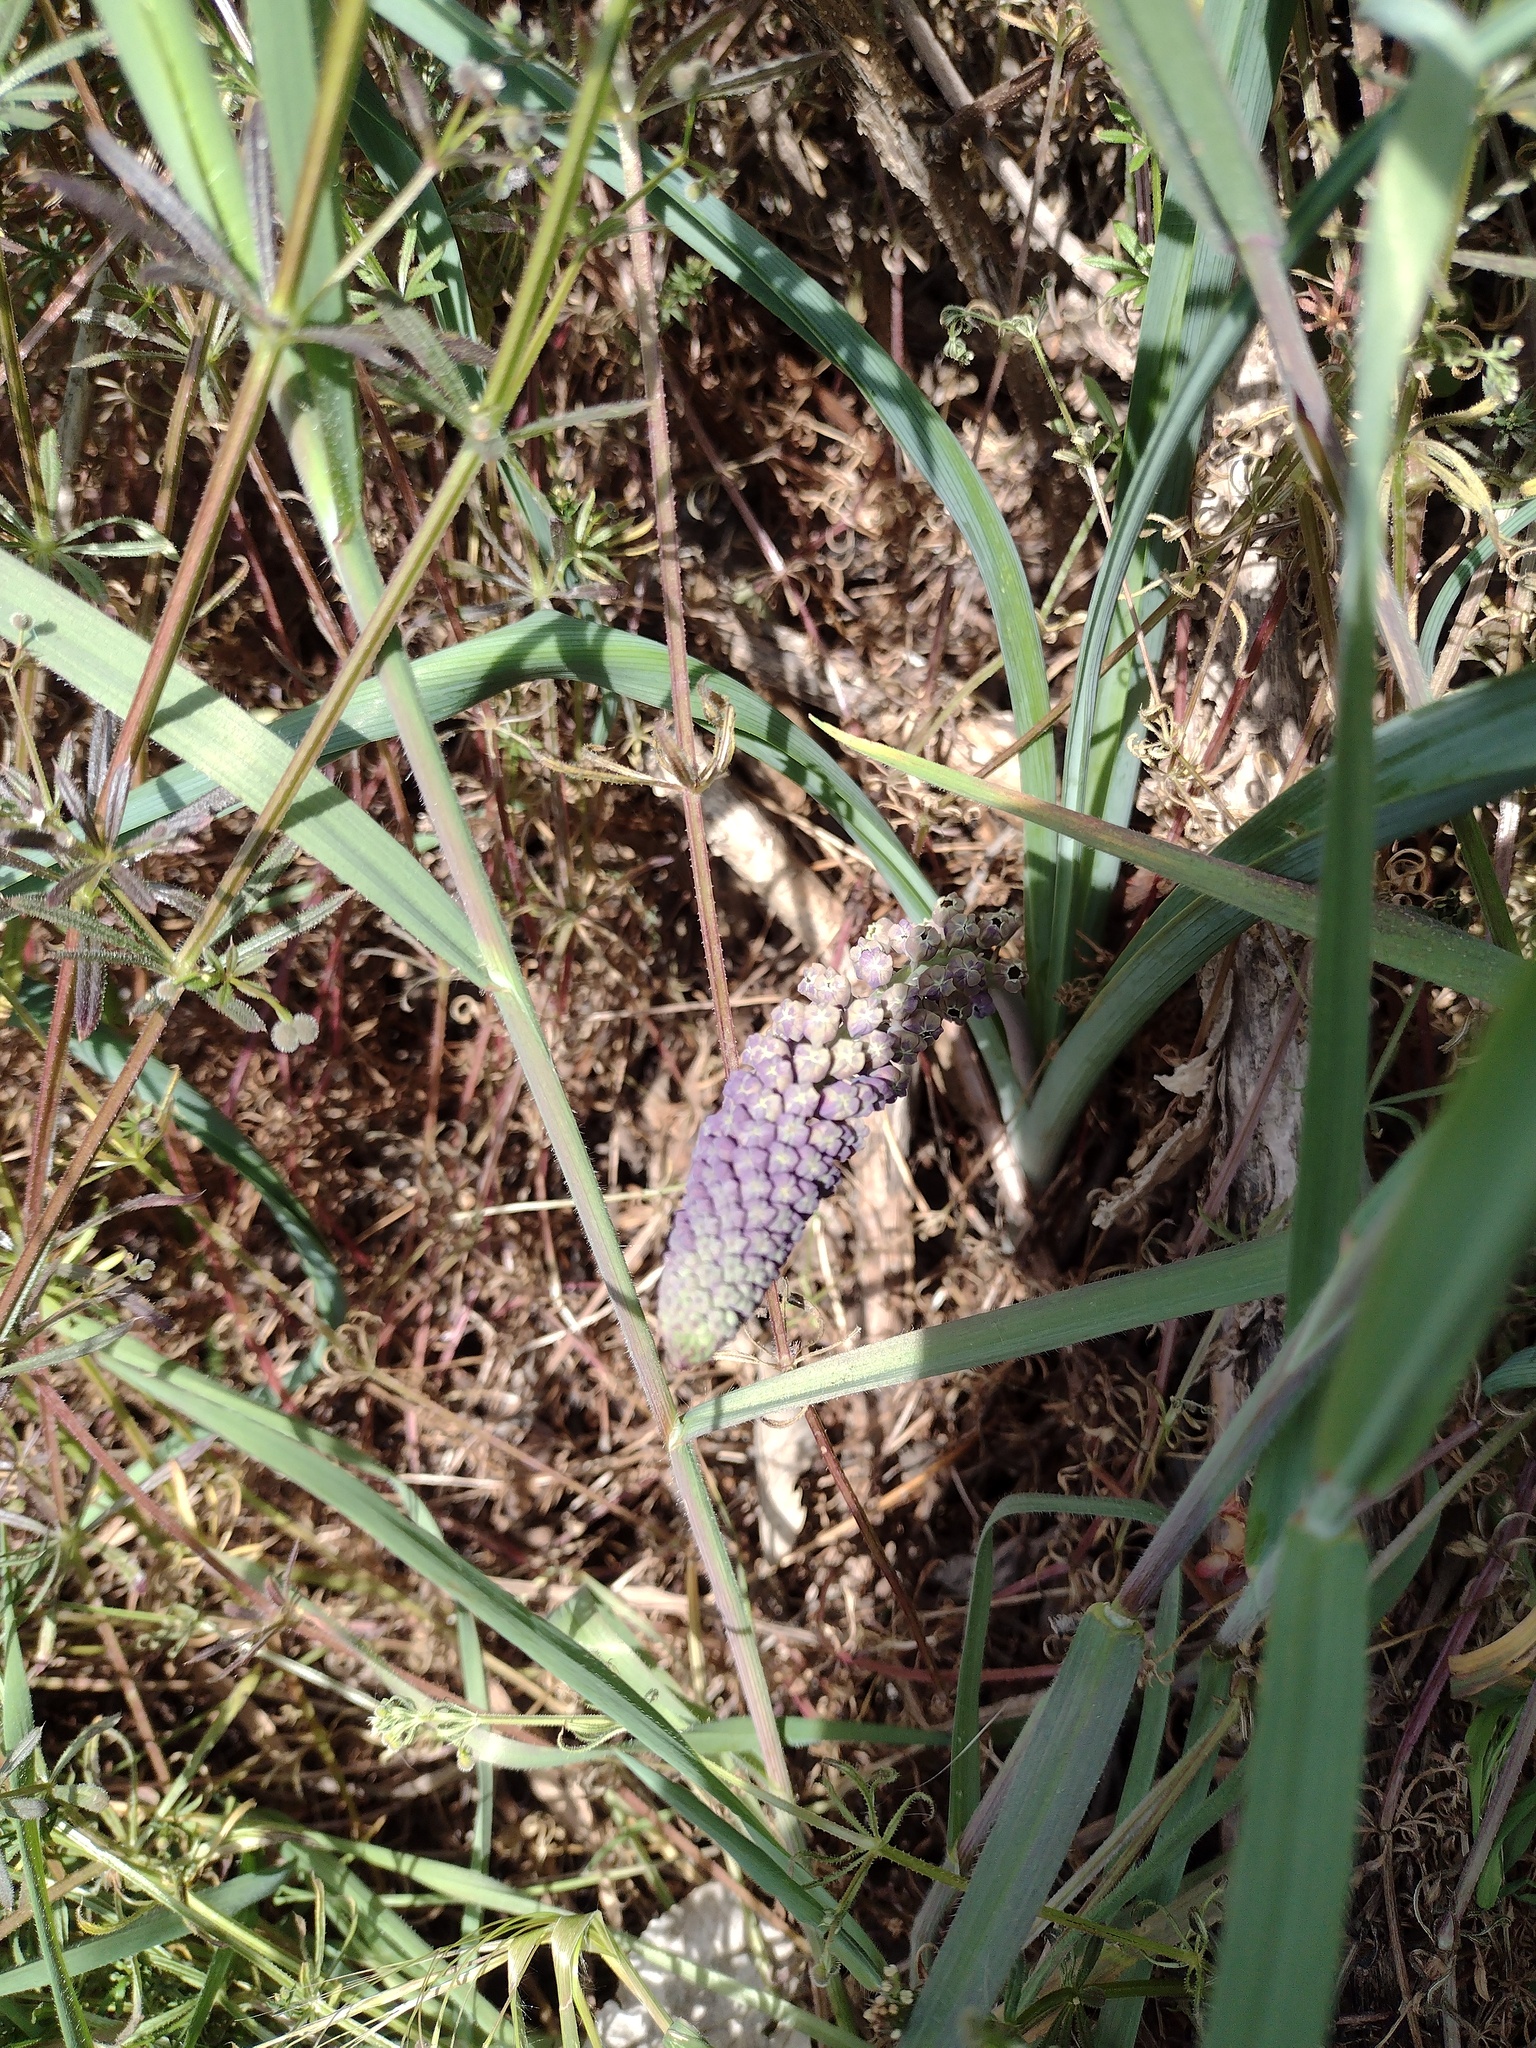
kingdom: Plantae
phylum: Tracheophyta
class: Liliopsida
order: Asparagales
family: Asparagaceae
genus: Muscari
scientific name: Muscari comosum
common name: Tassel hyacinth
